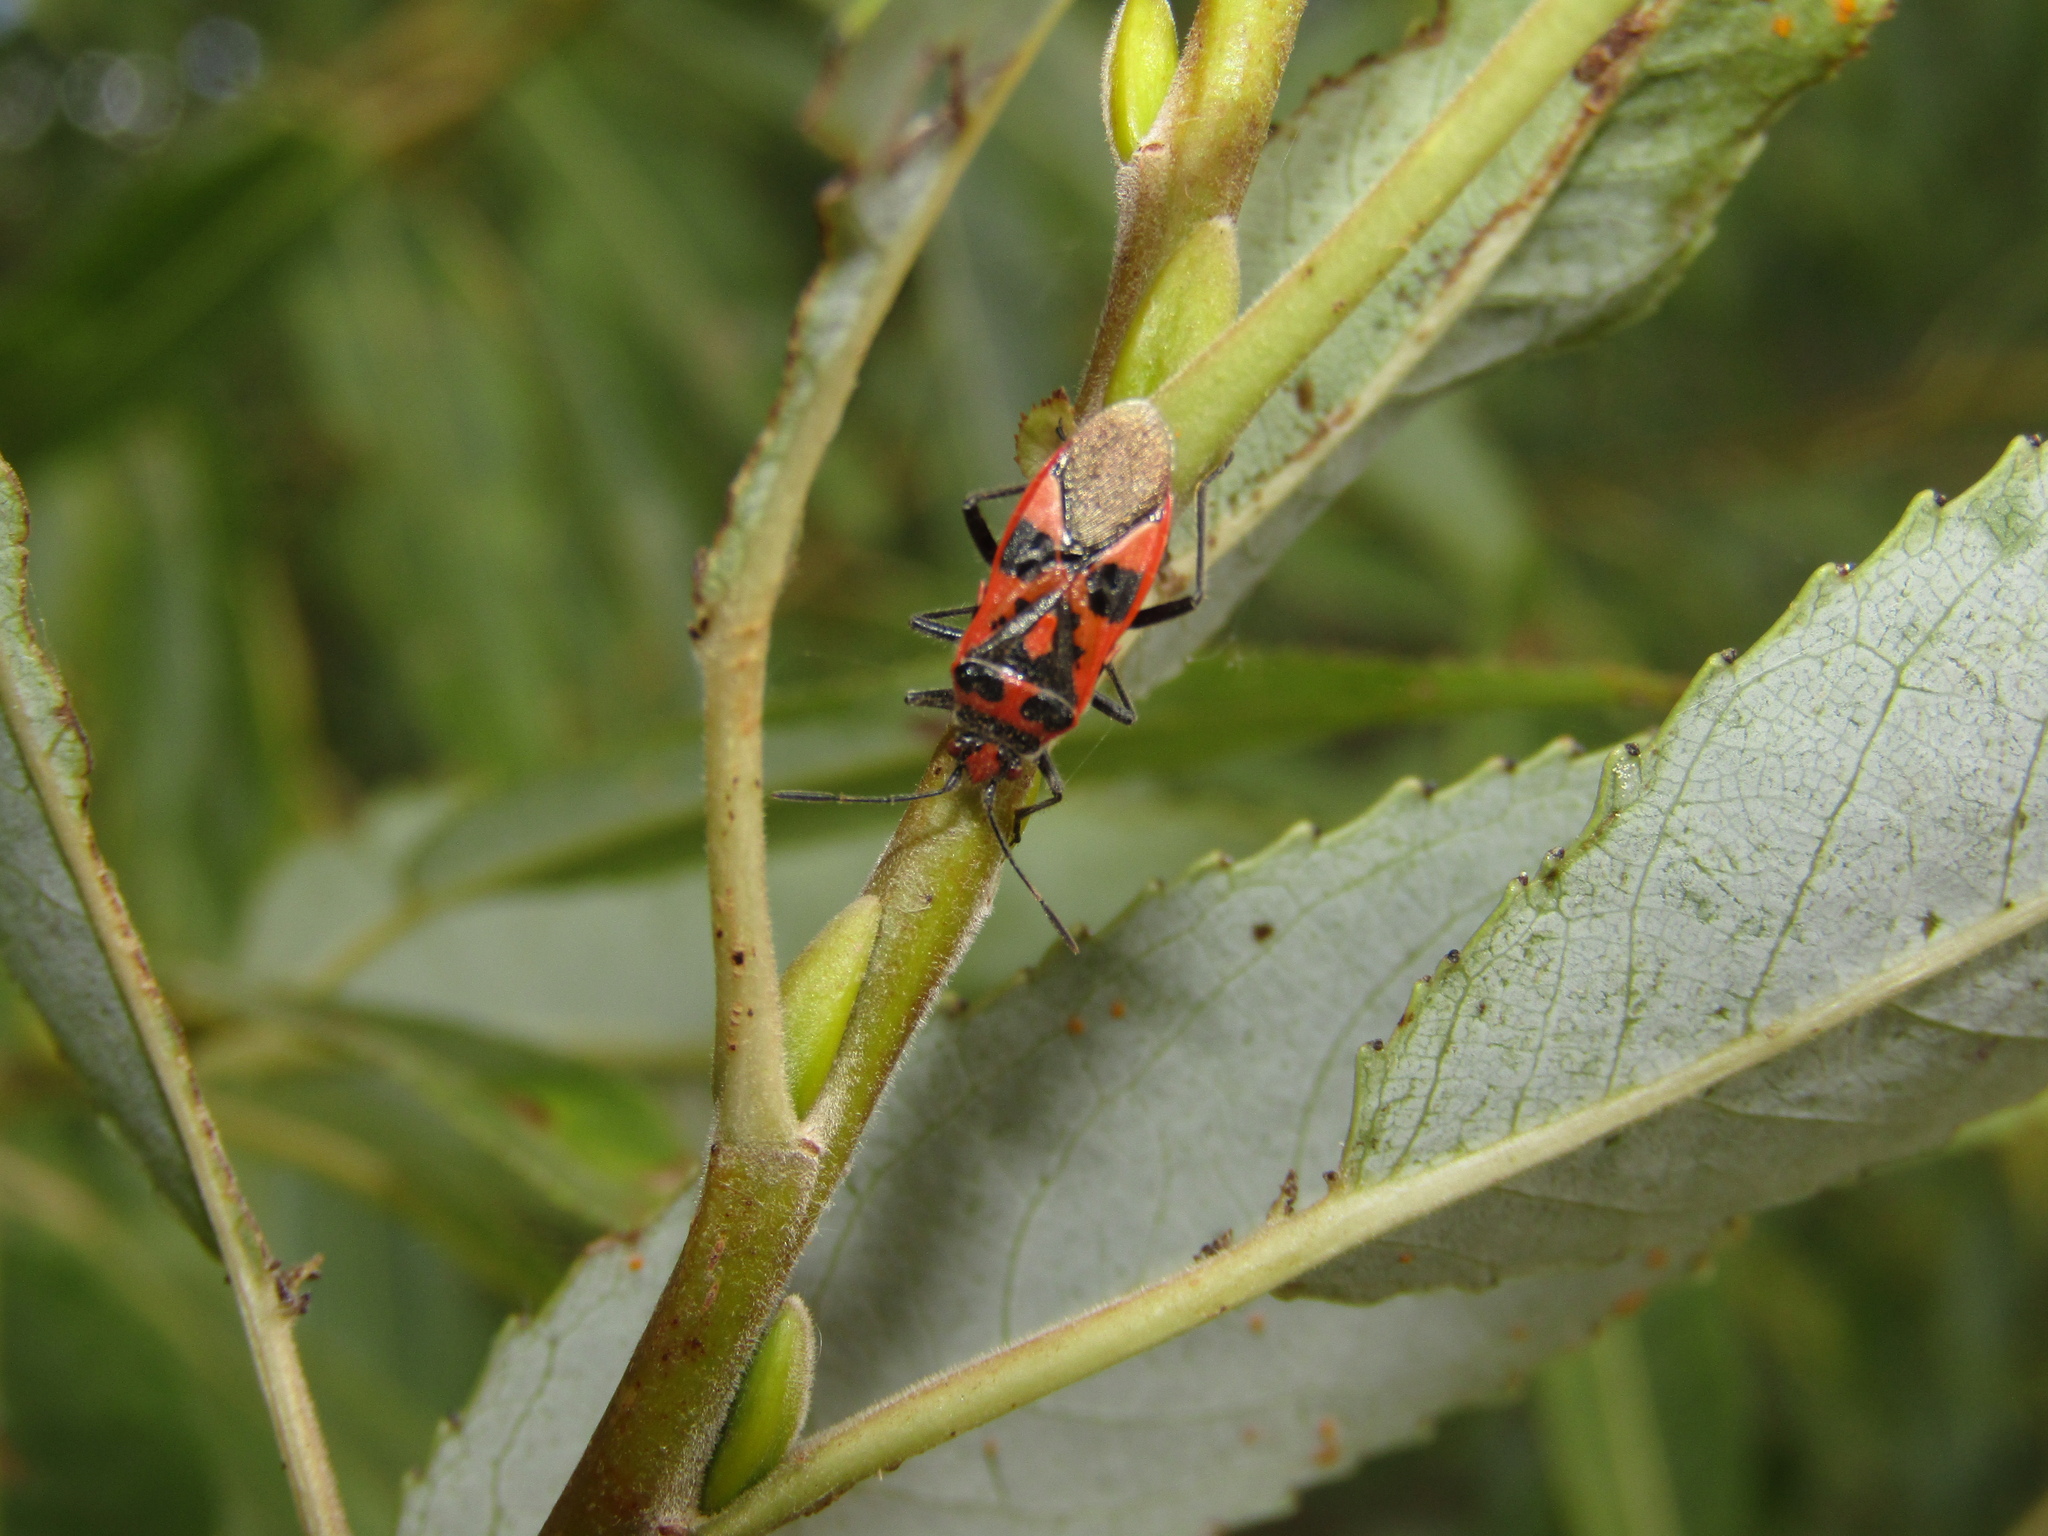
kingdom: Animalia
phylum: Arthropoda
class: Insecta
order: Hemiptera
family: Rhopalidae
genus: Corizus
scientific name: Corizus hyoscyami
